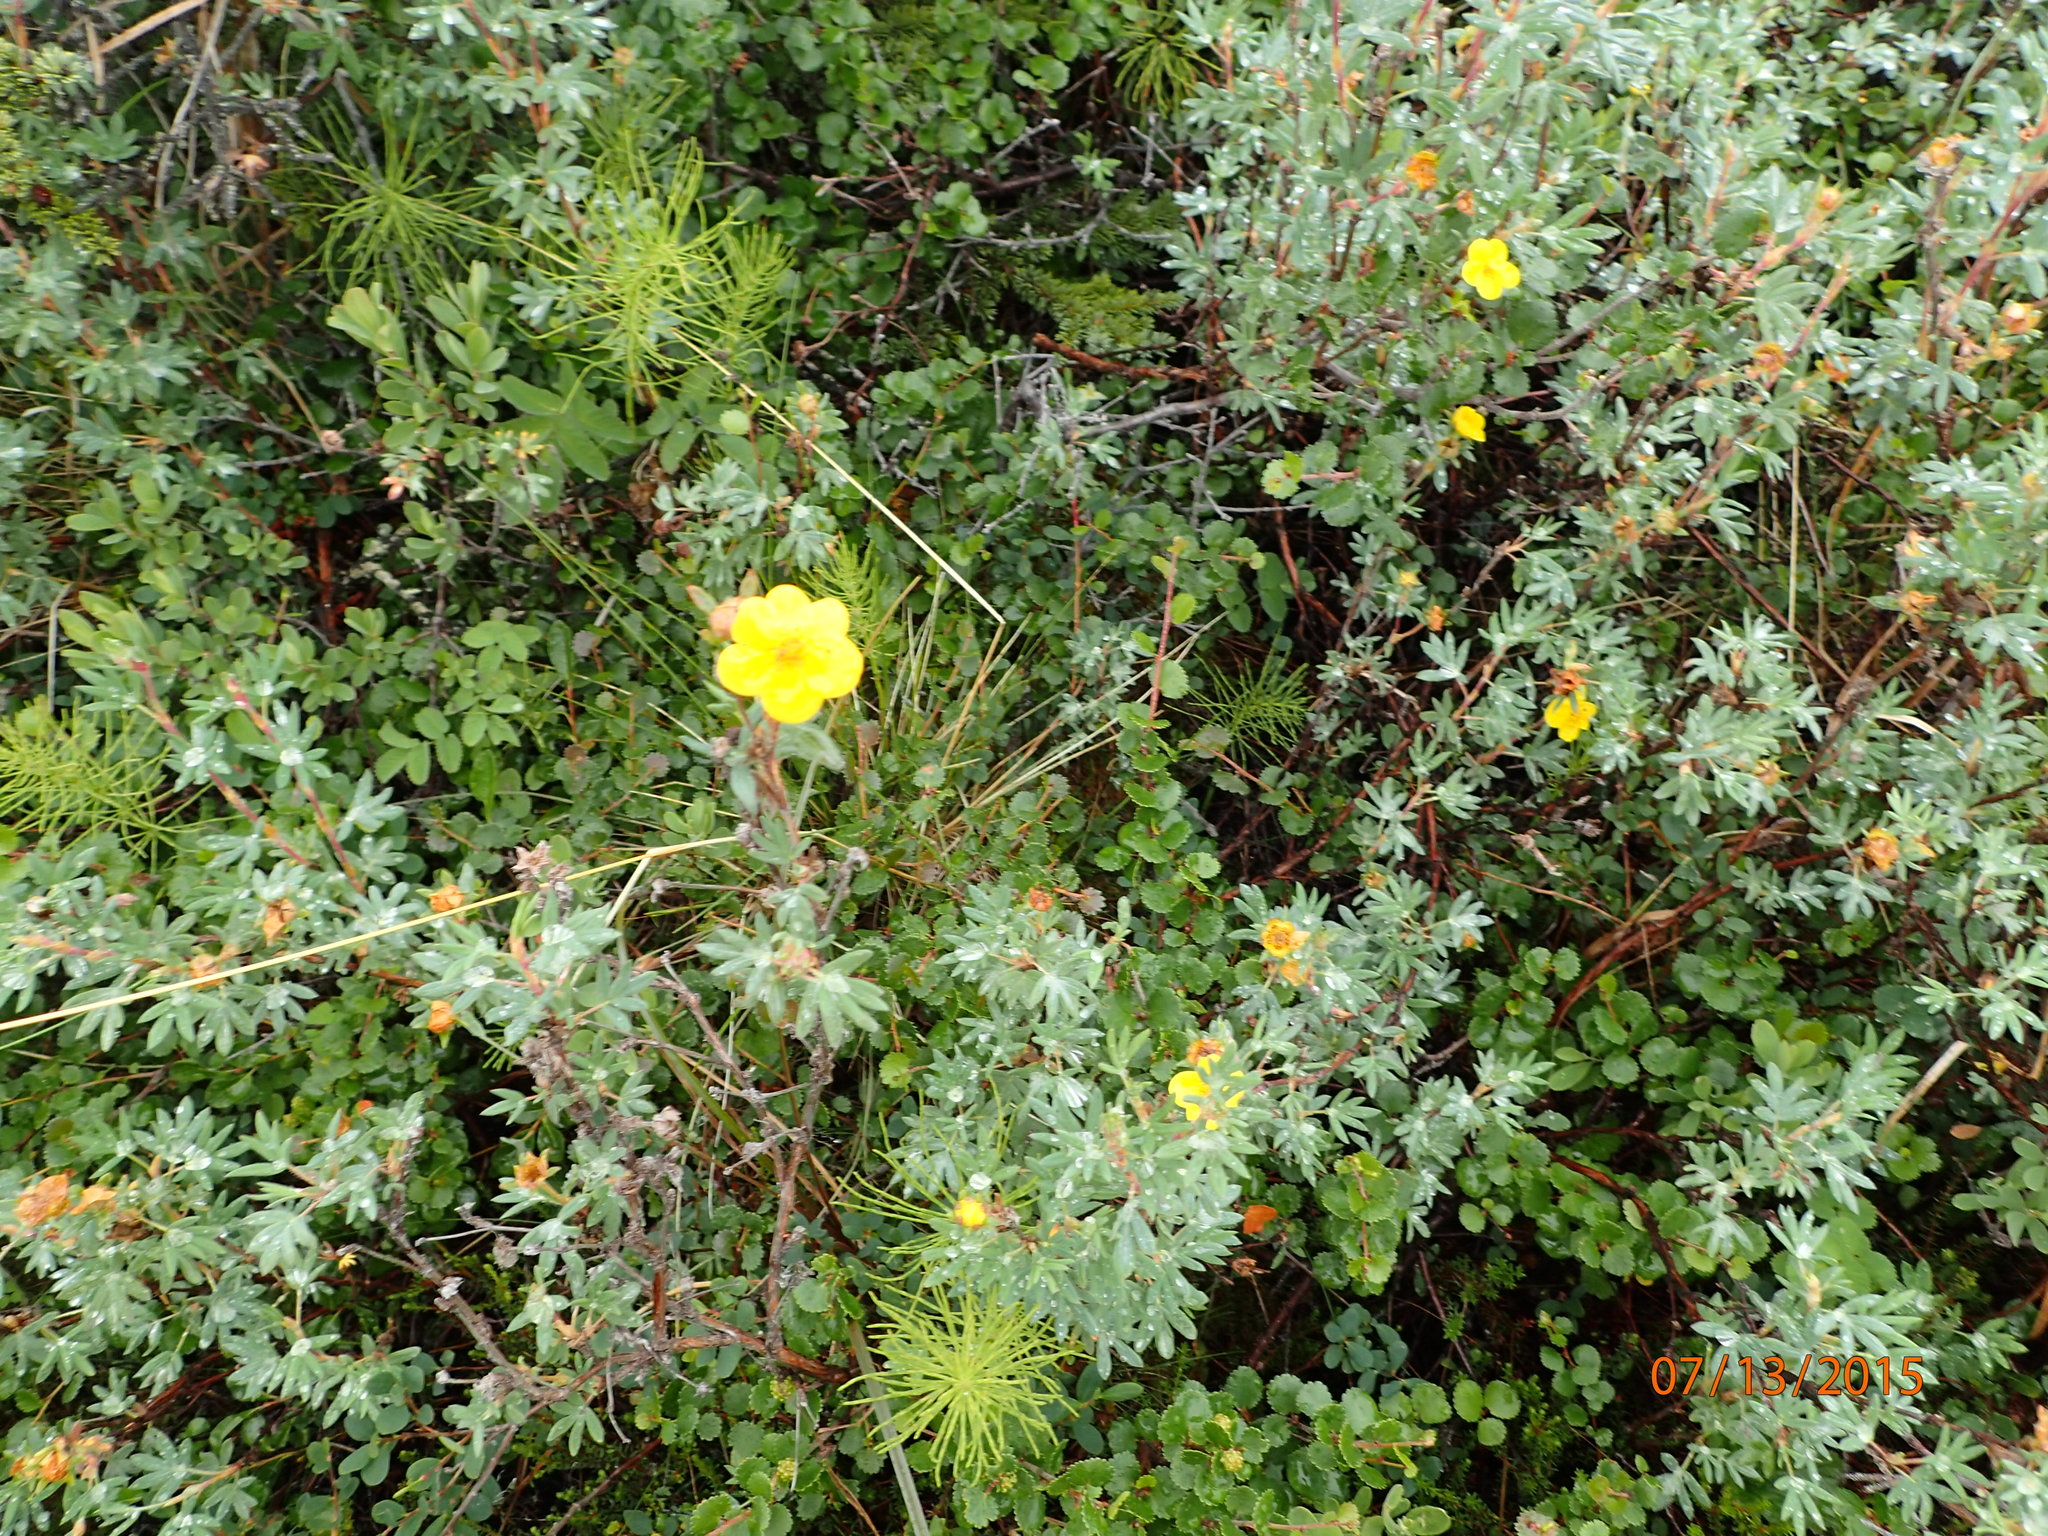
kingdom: Plantae
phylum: Tracheophyta
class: Magnoliopsida
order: Rosales
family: Rosaceae
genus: Dasiphora
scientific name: Dasiphora fruticosa
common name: Shrubby cinquefoil
